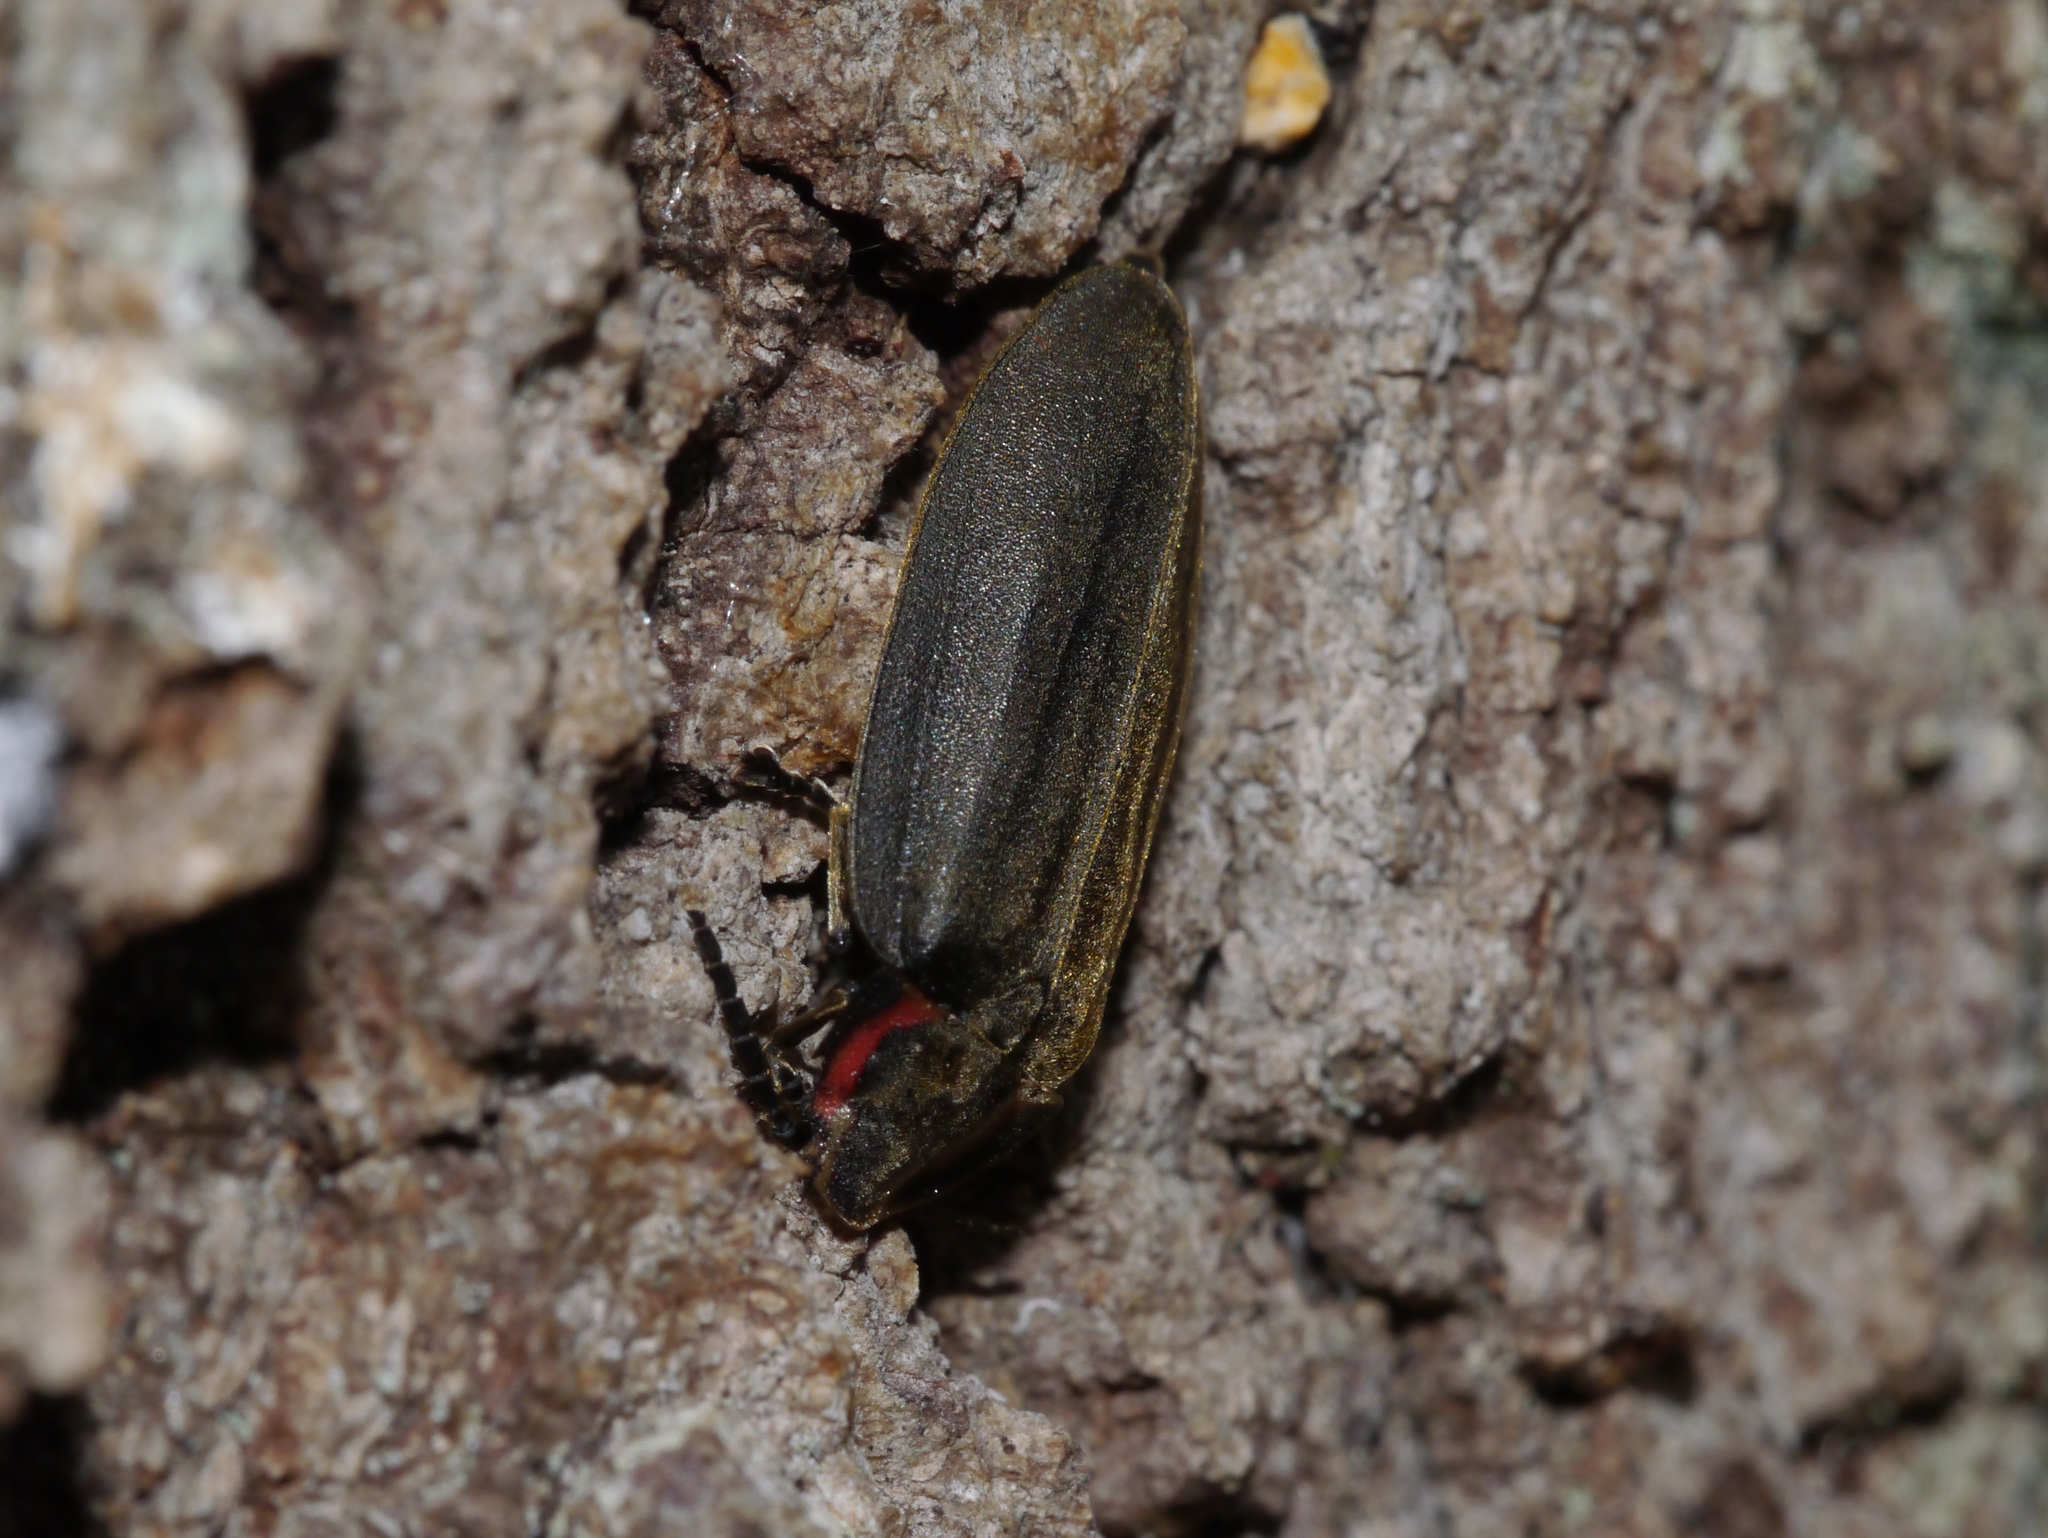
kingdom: Animalia
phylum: Arthropoda
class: Insecta
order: Coleoptera
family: Lampyridae
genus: Photinus
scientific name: Photinus corrusca
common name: Winter firefly
